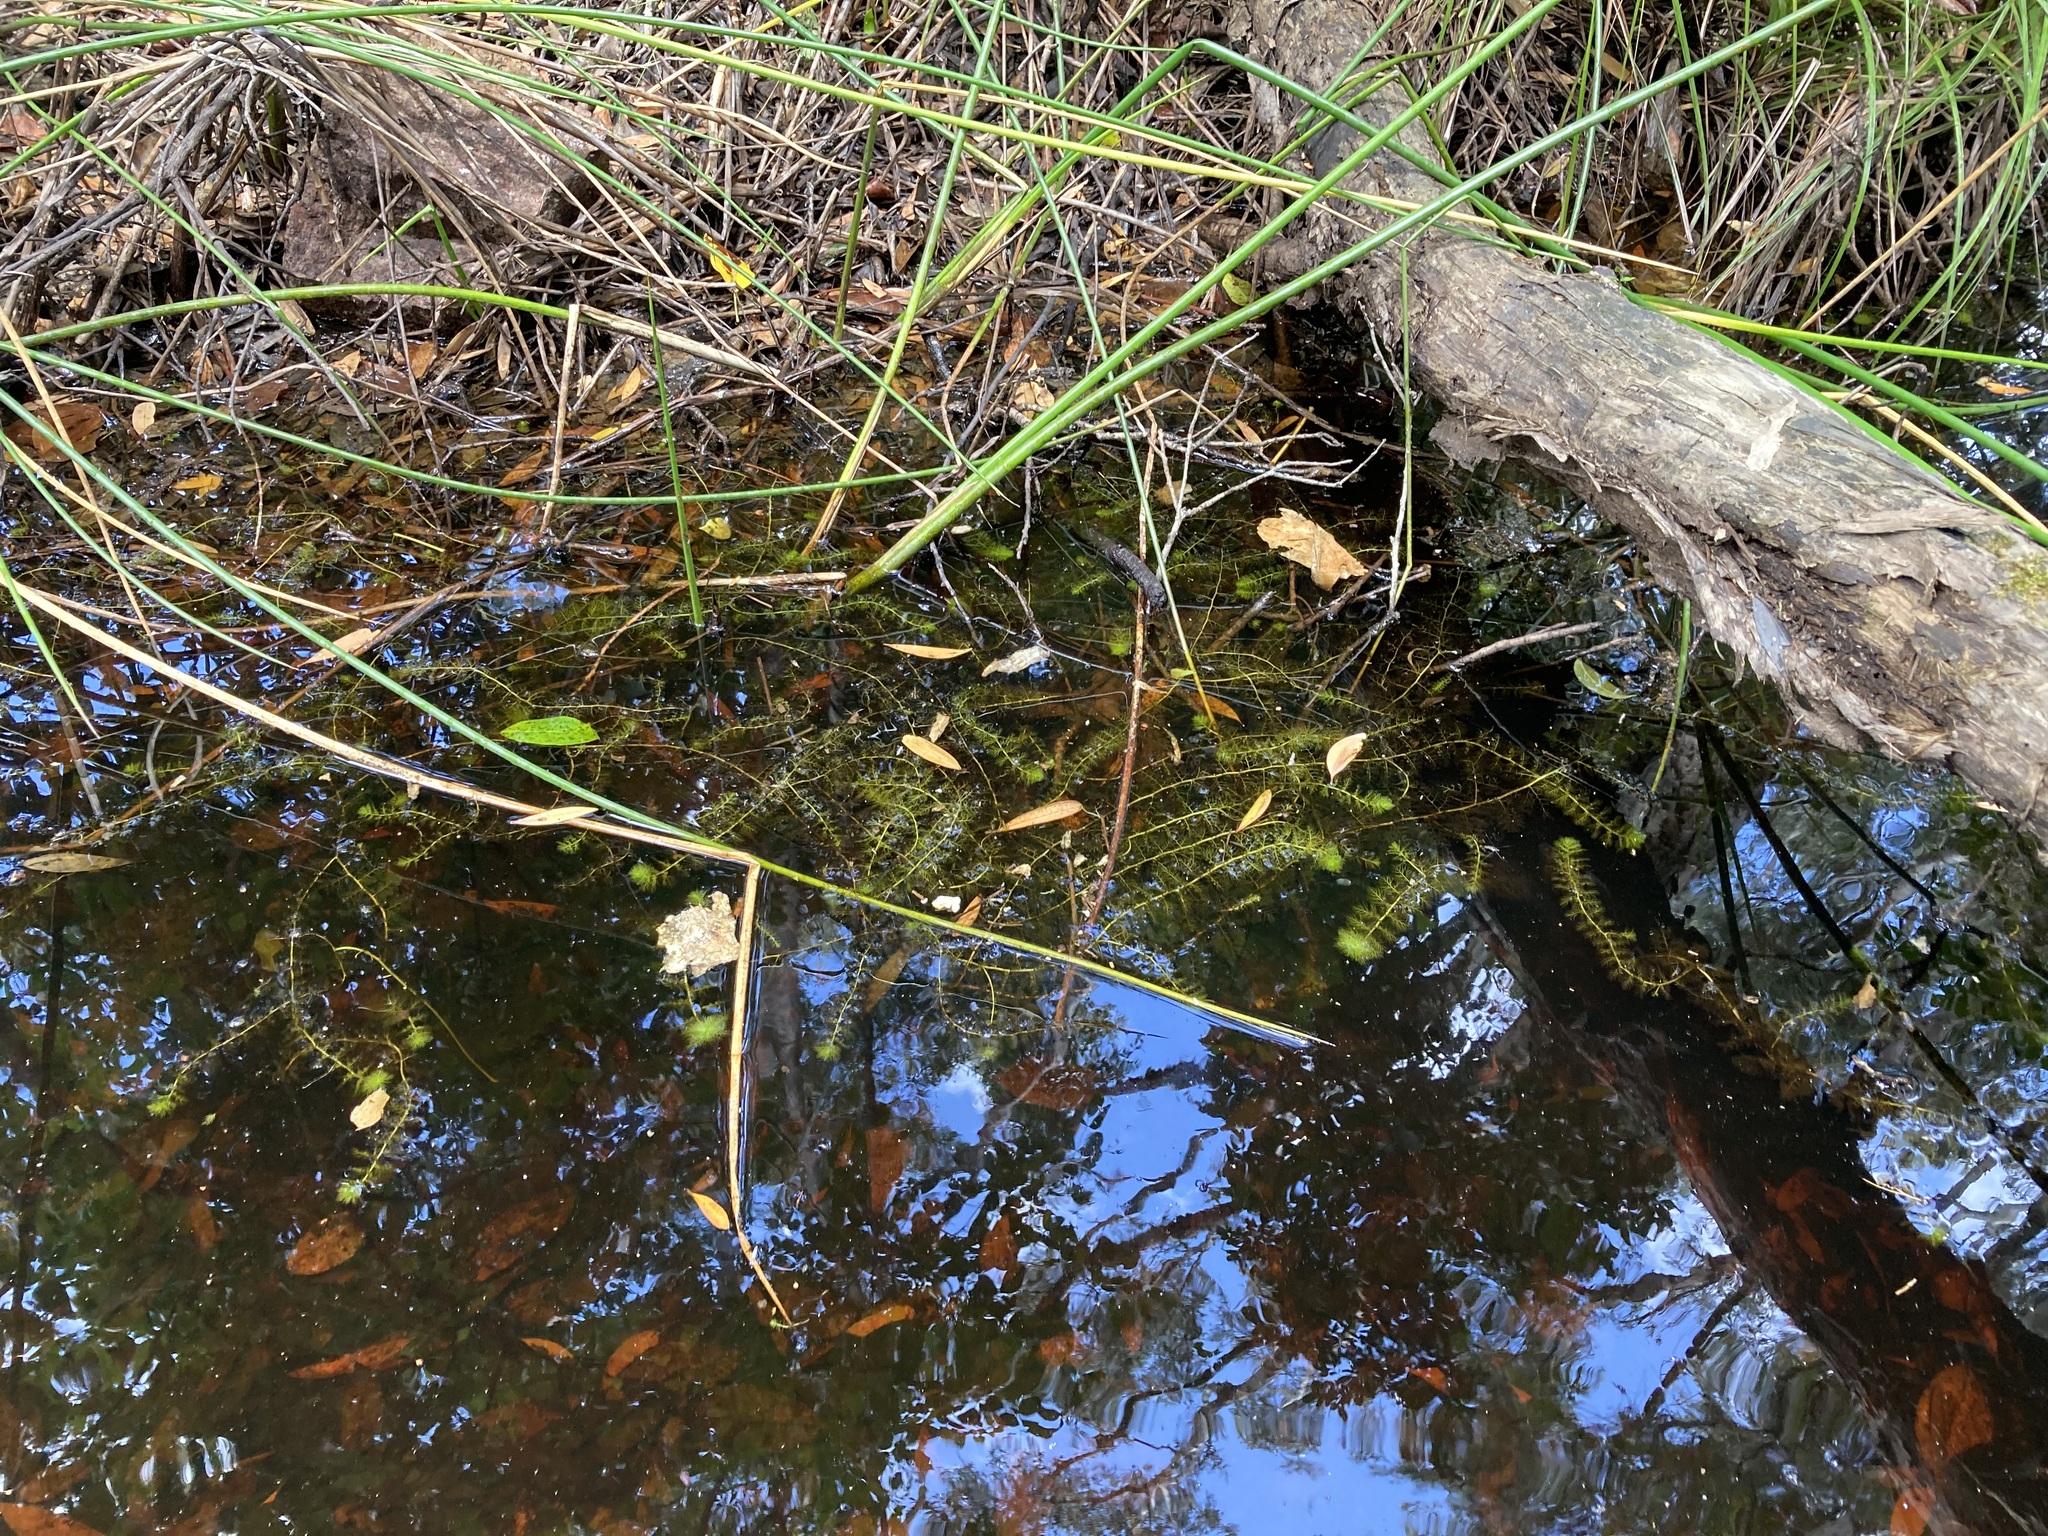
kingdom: Plantae
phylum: Tracheophyta
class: Magnoliopsida
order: Lamiales
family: Lentibulariaceae
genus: Utricularia
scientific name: Utricularia aurea
